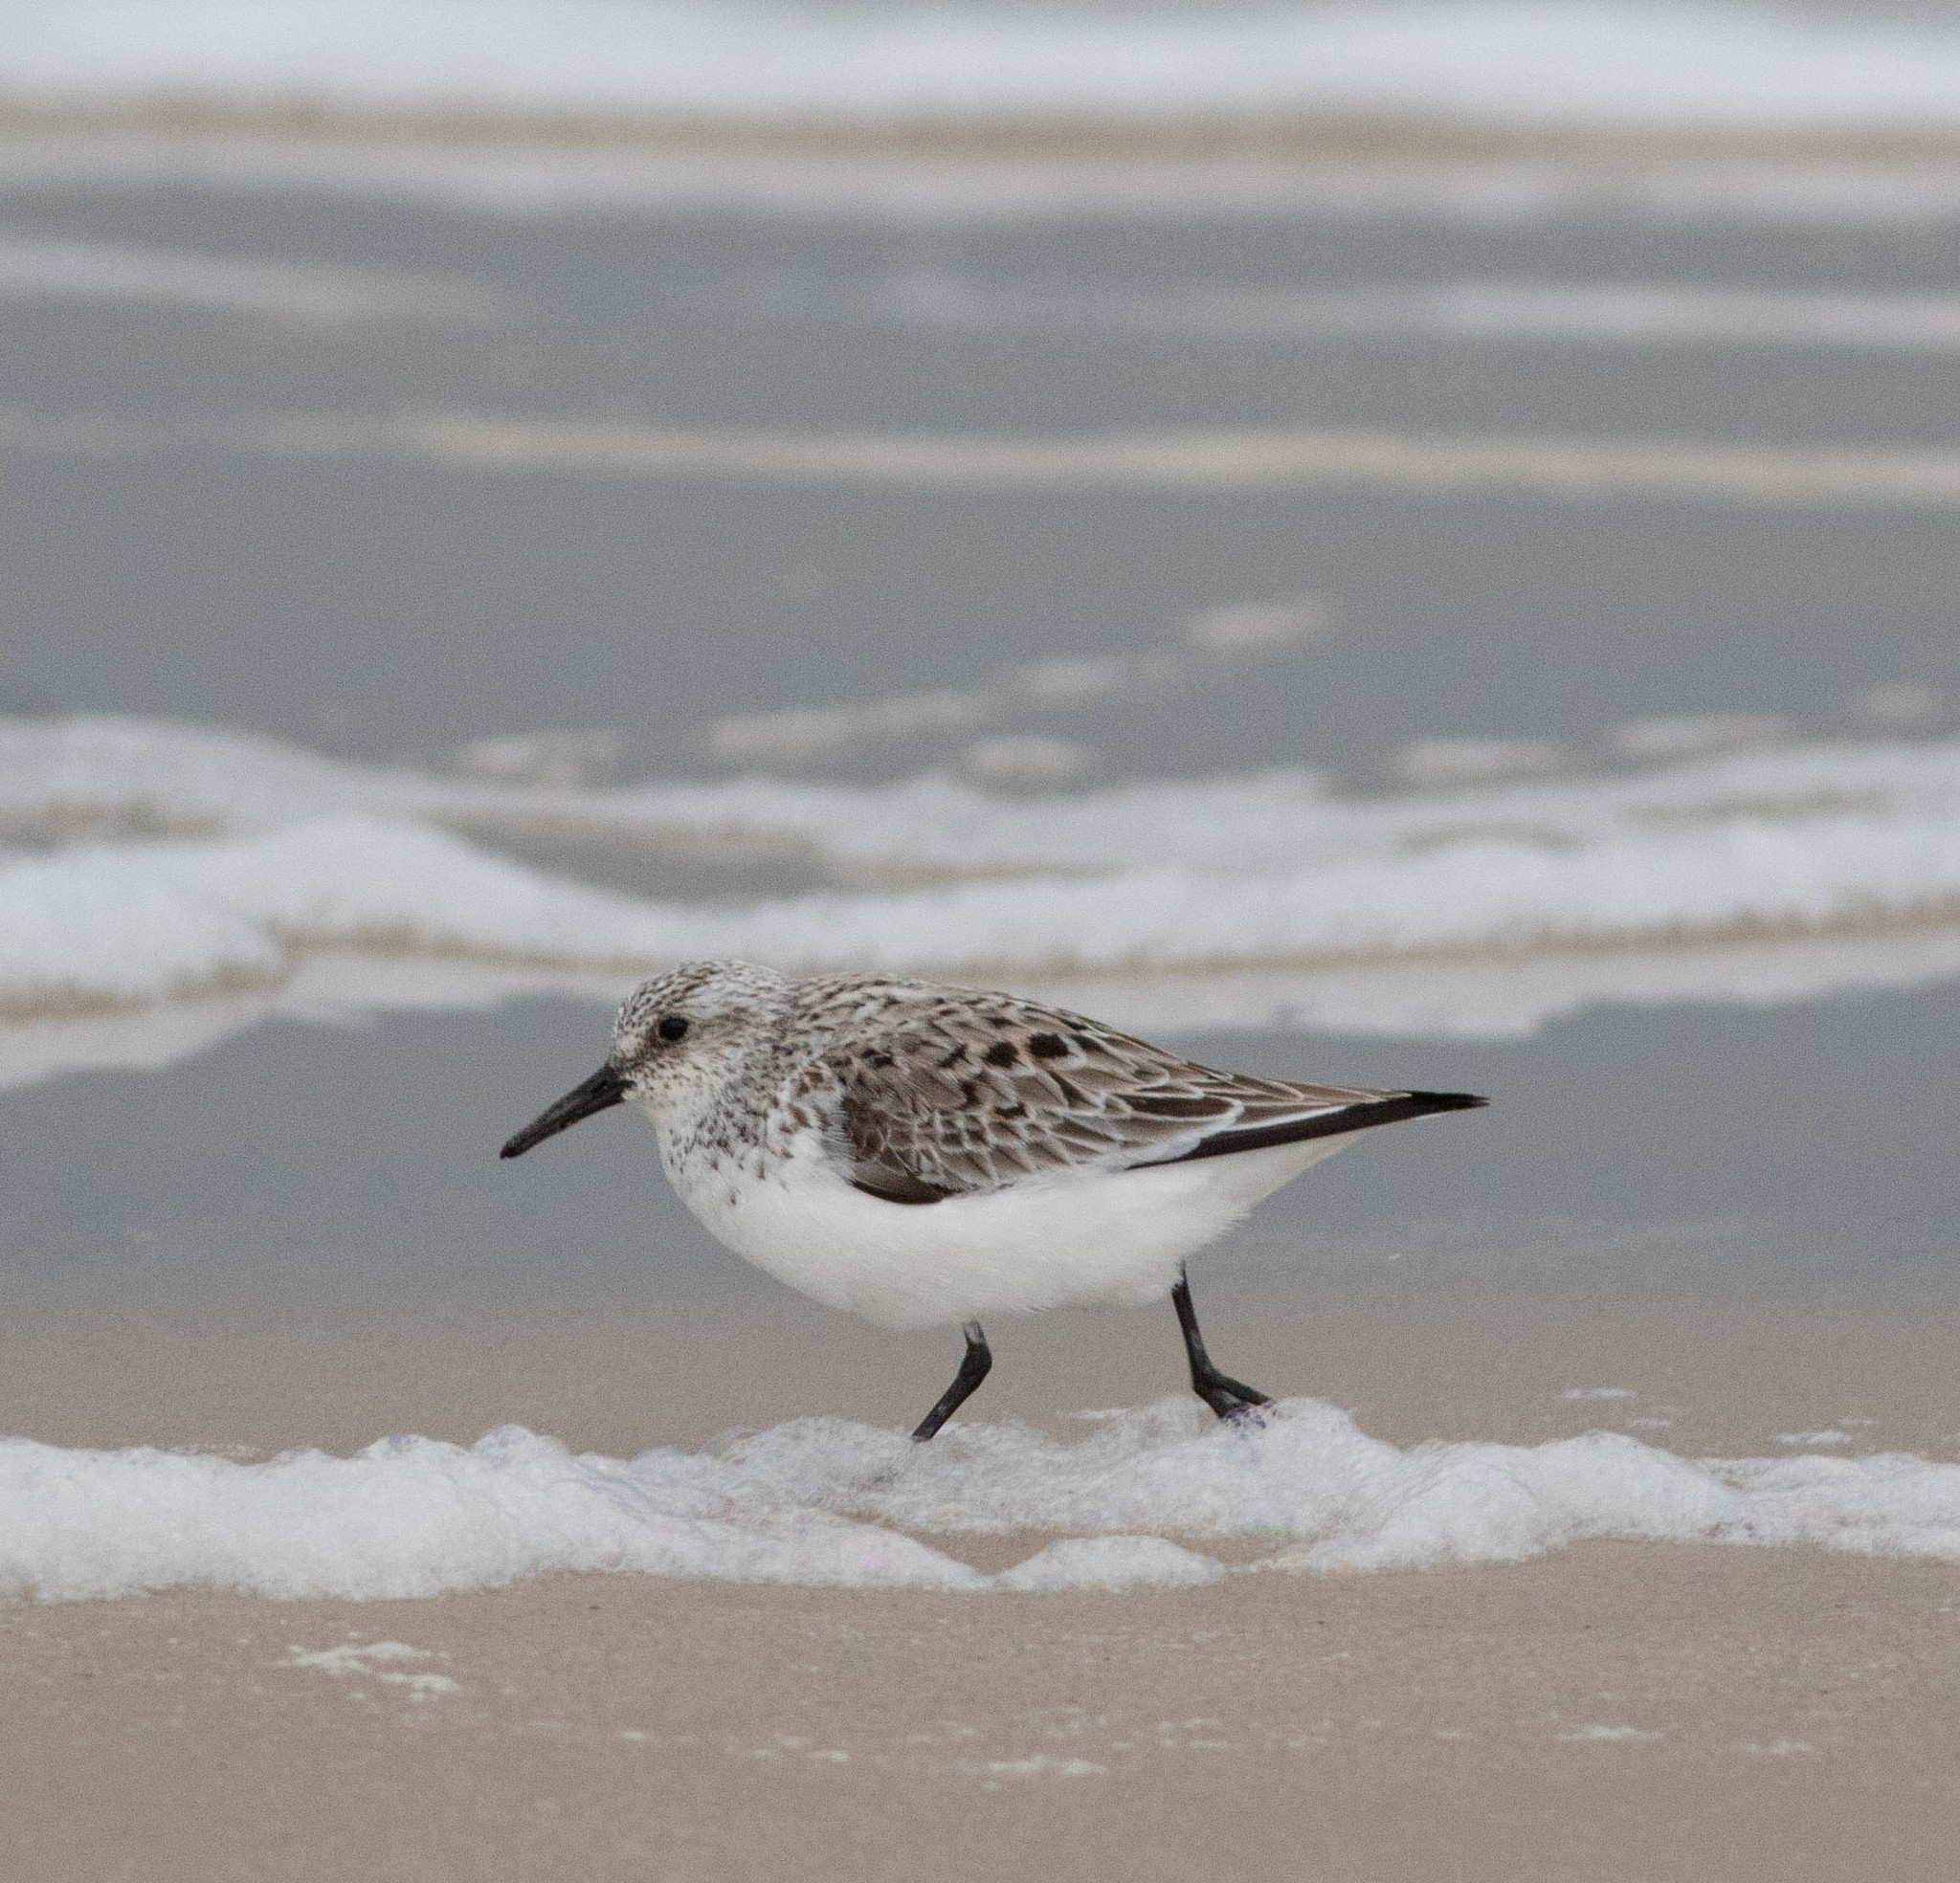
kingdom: Animalia
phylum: Chordata
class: Aves
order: Charadriiformes
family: Scolopacidae
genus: Calidris
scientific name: Calidris alba
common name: Sanderling
